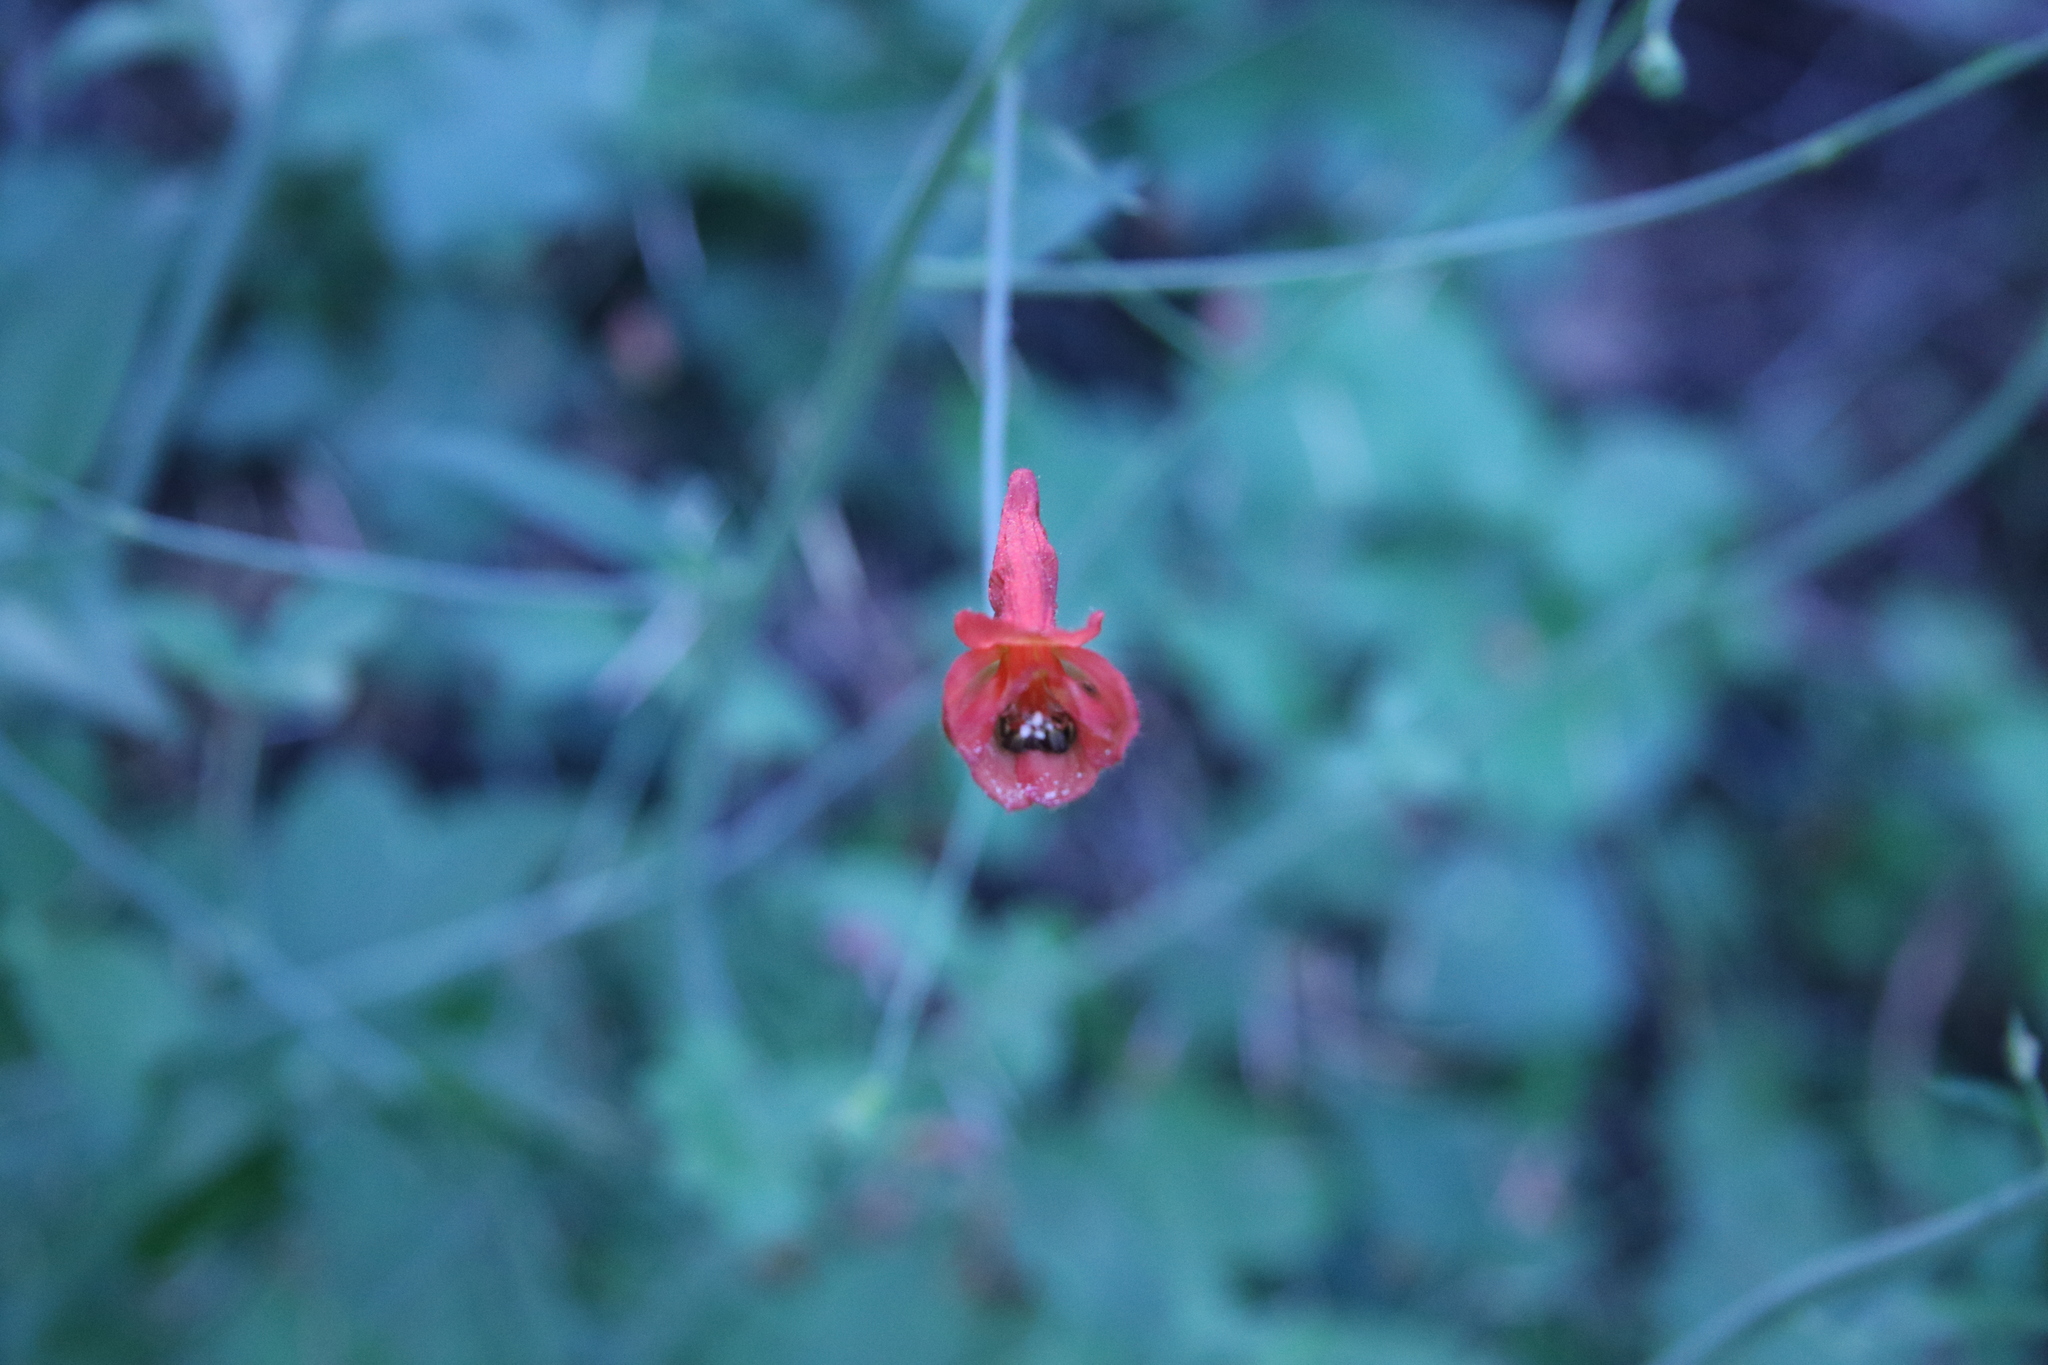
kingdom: Plantae
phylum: Tracheophyta
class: Magnoliopsida
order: Ranunculales
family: Ranunculaceae
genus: Delphinium
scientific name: Delphinium nudicaule
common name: Red larkspur
